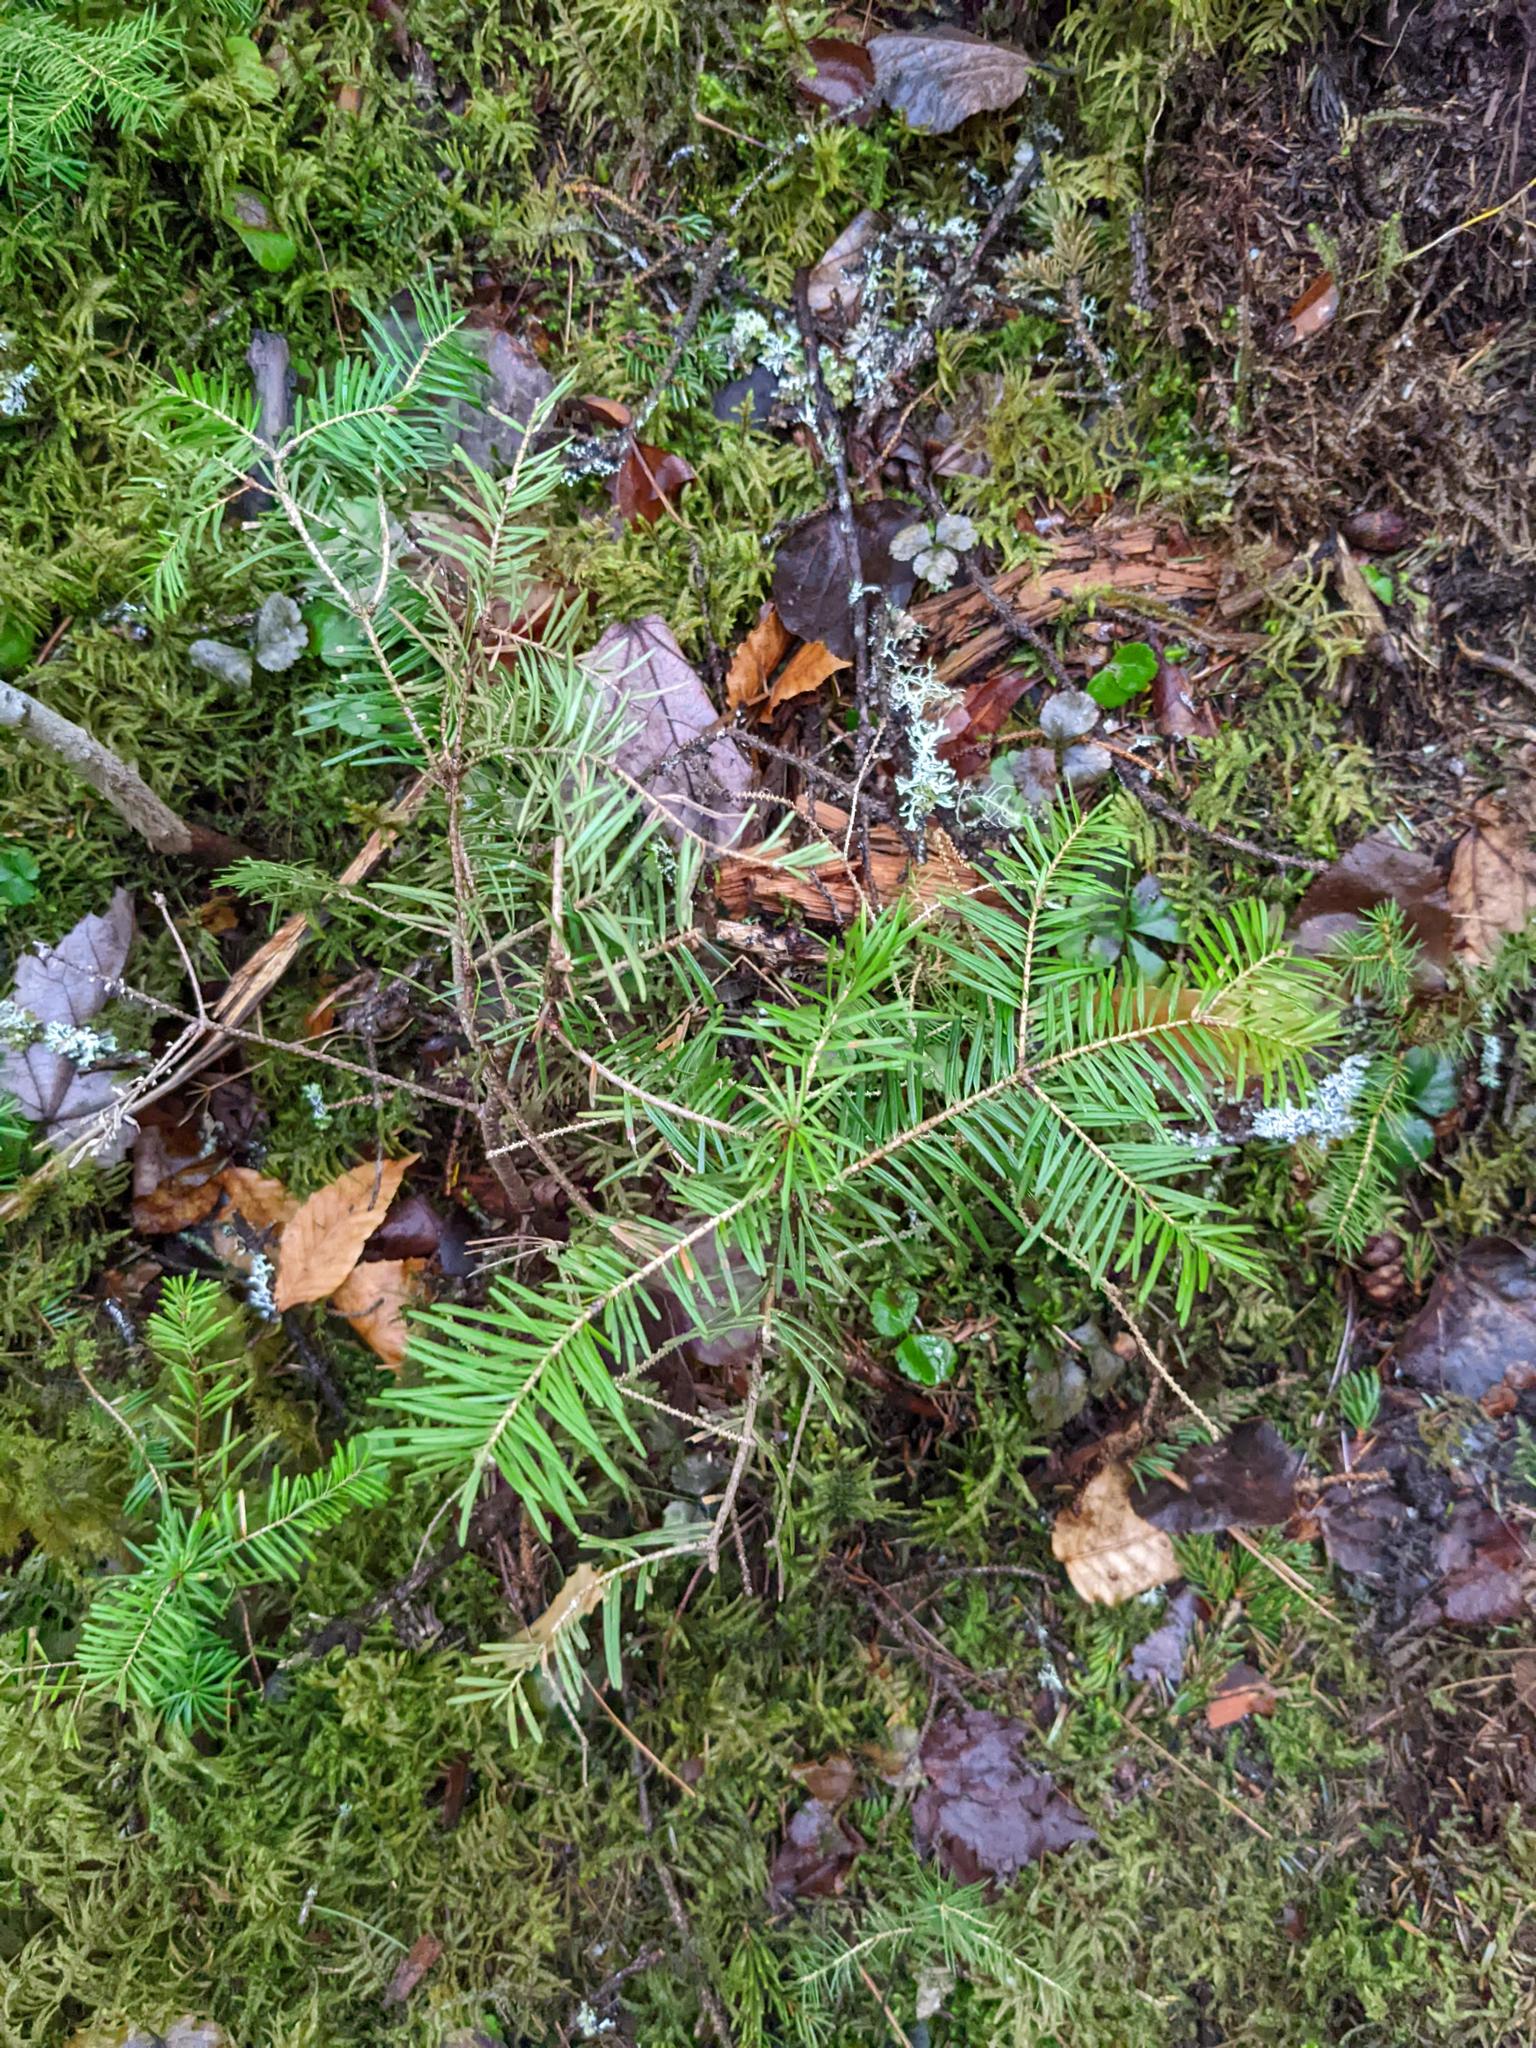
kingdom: Plantae
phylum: Tracheophyta
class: Pinopsida
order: Pinales
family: Pinaceae
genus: Abies
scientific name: Abies balsamea
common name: Balsam fir
